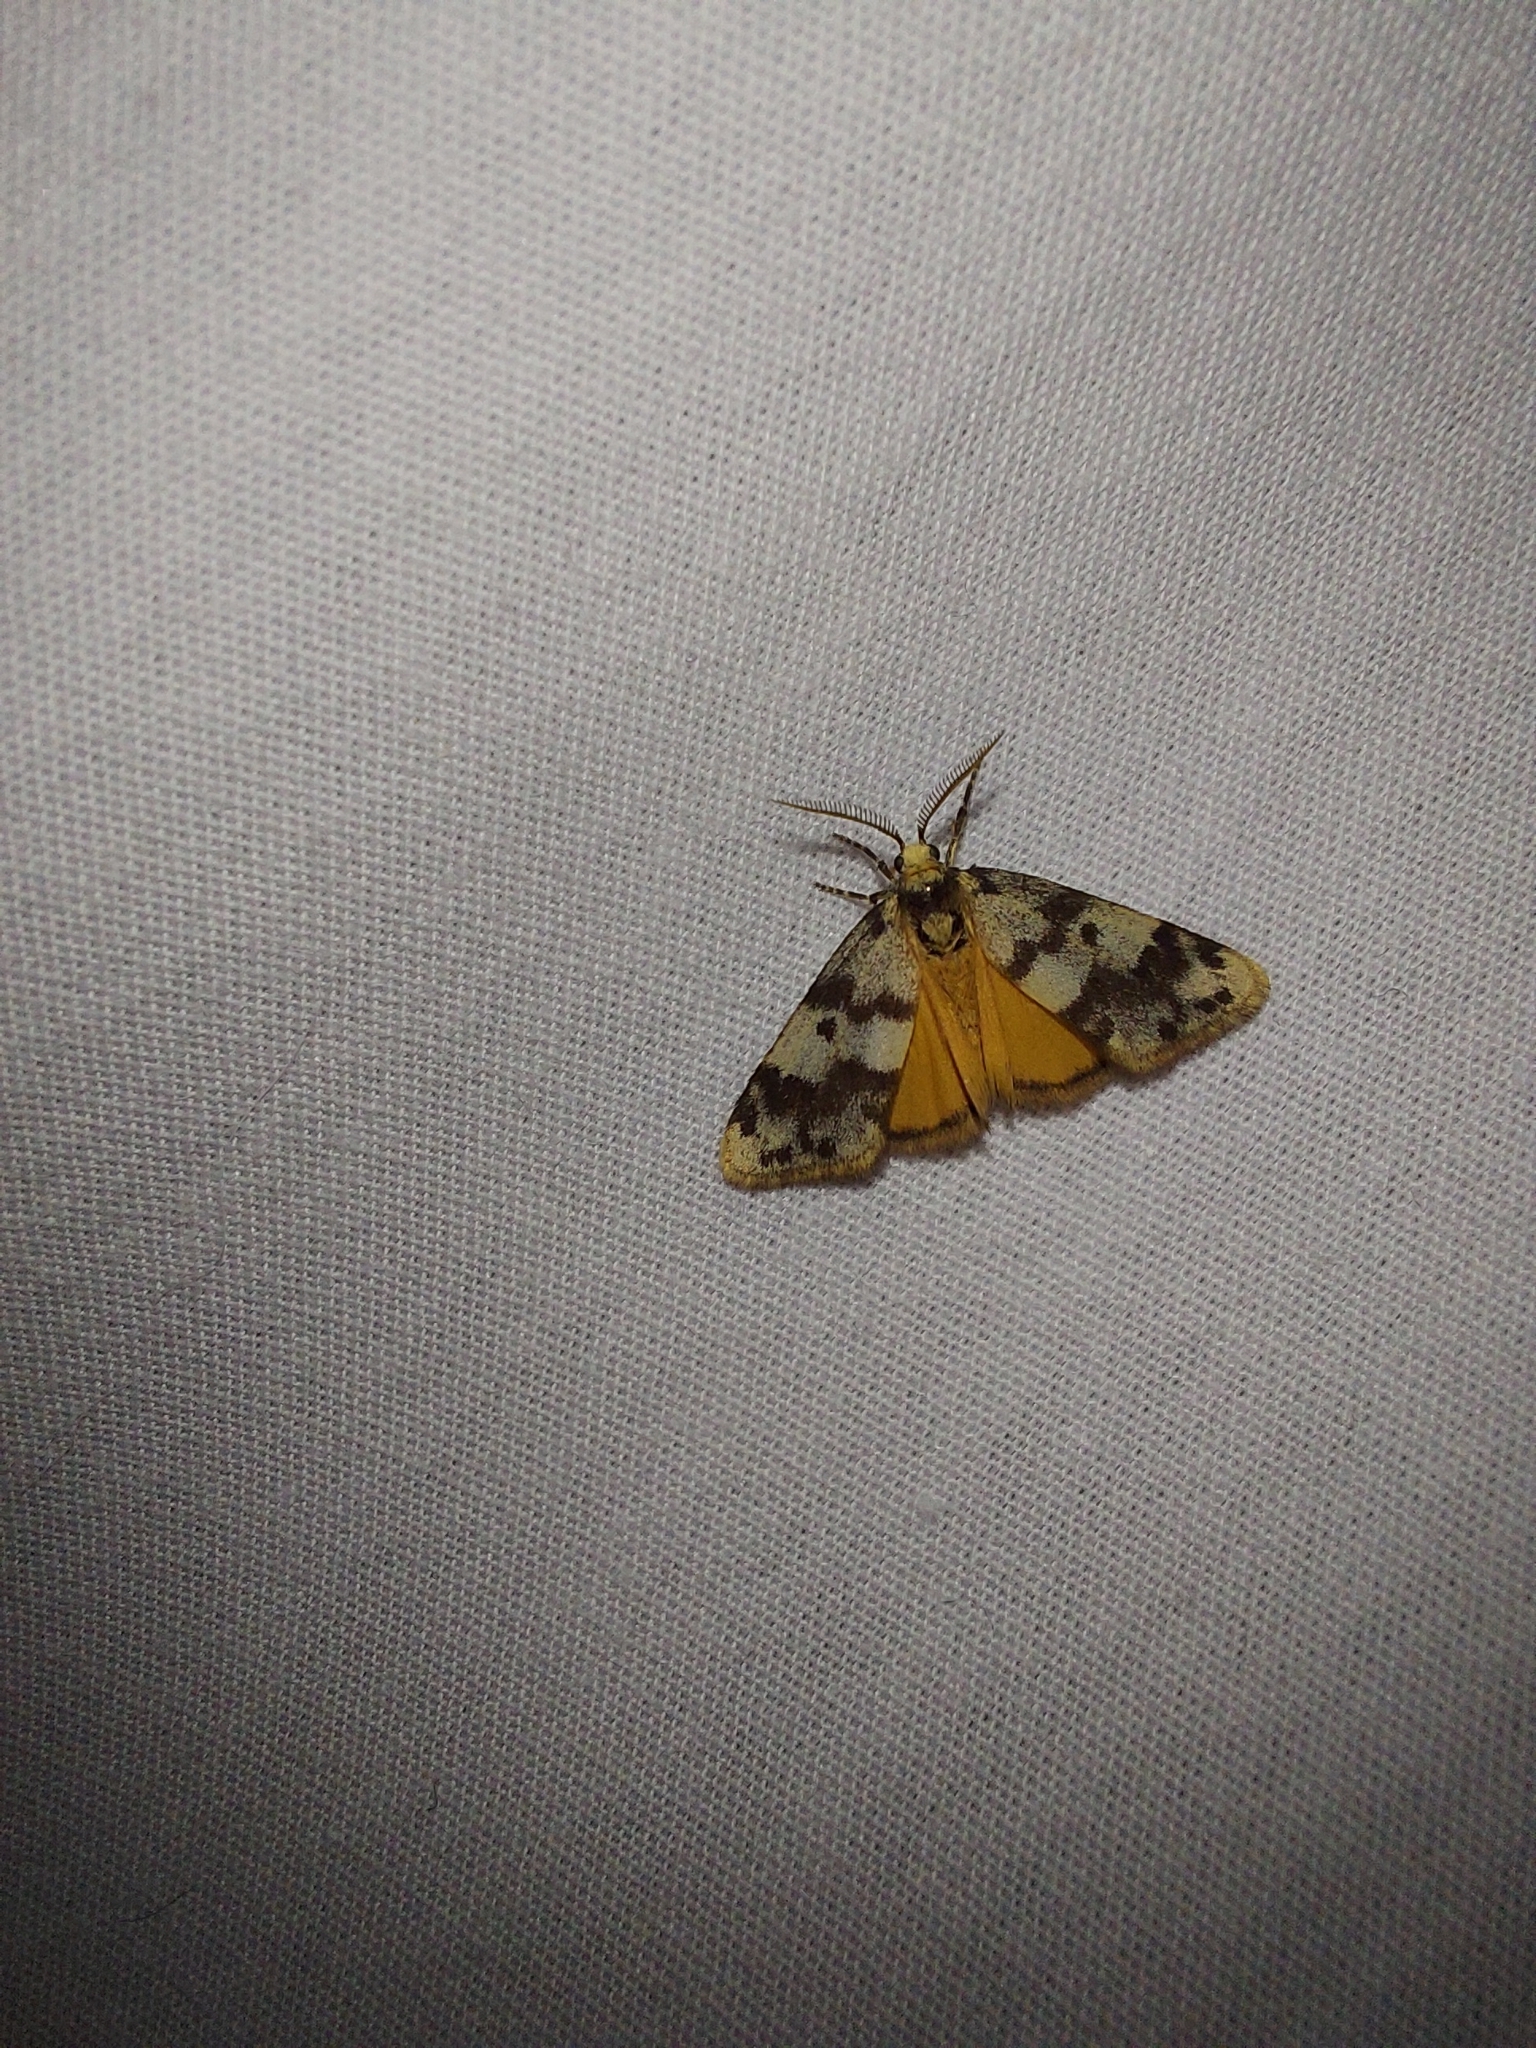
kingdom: Animalia
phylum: Arthropoda
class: Insecta
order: Lepidoptera
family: Erebidae
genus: Anestia
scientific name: Anestia
